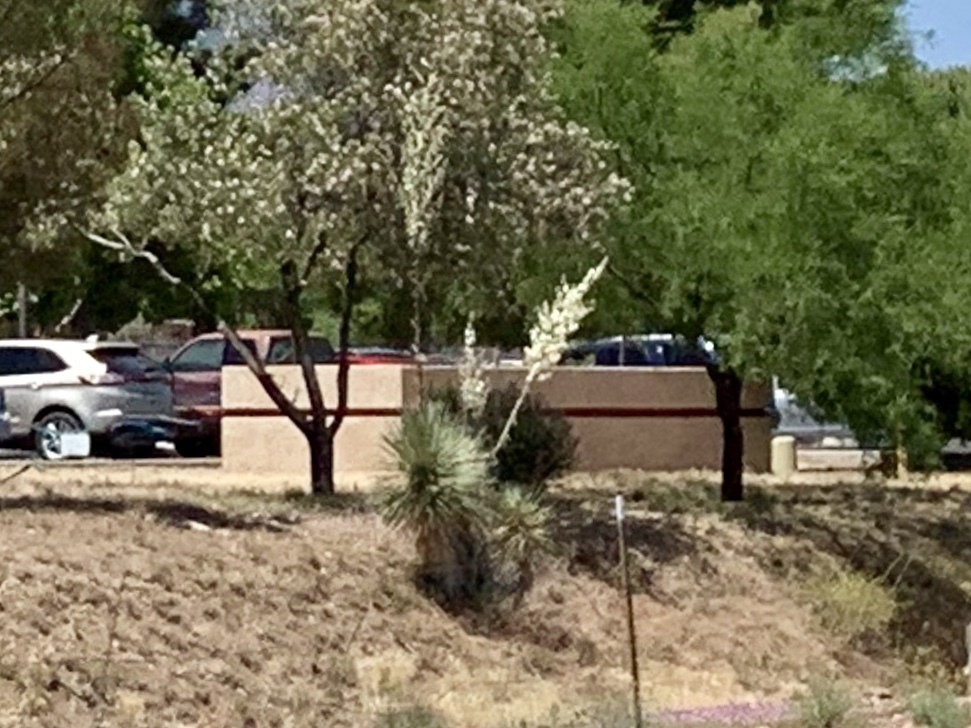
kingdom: Plantae
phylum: Tracheophyta
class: Liliopsida
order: Asparagales
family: Asparagaceae
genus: Yucca
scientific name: Yucca elata
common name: Palmella
